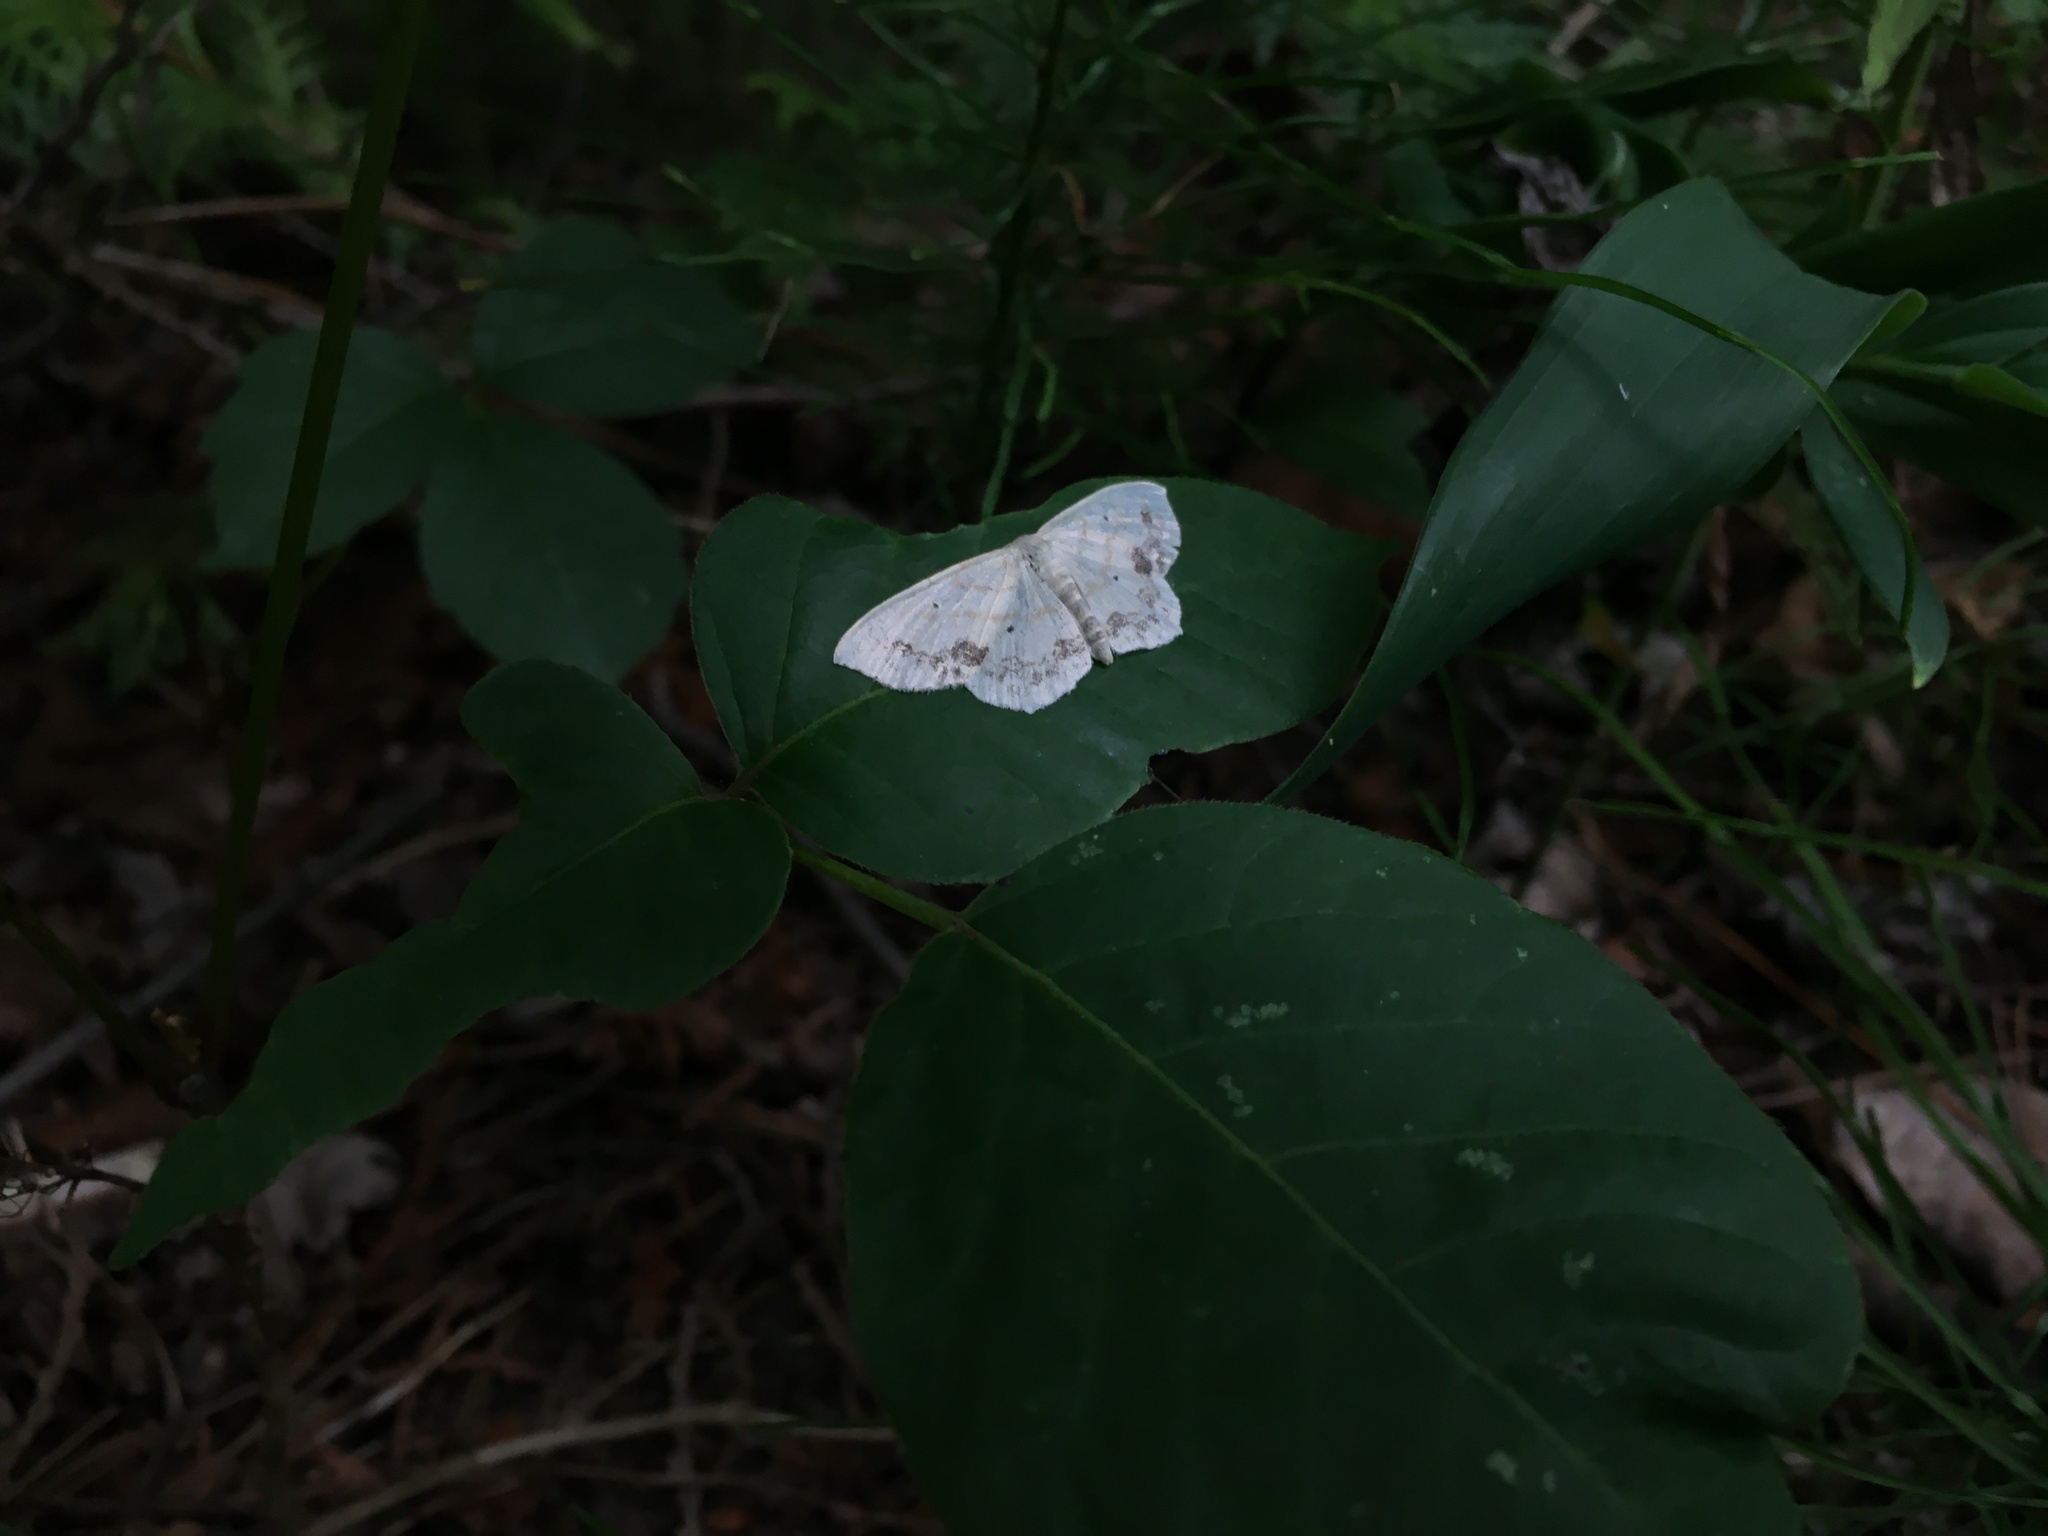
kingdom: Animalia
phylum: Arthropoda
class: Insecta
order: Lepidoptera
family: Geometridae
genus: Scopula
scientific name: Scopula limboundata
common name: Large lace border
